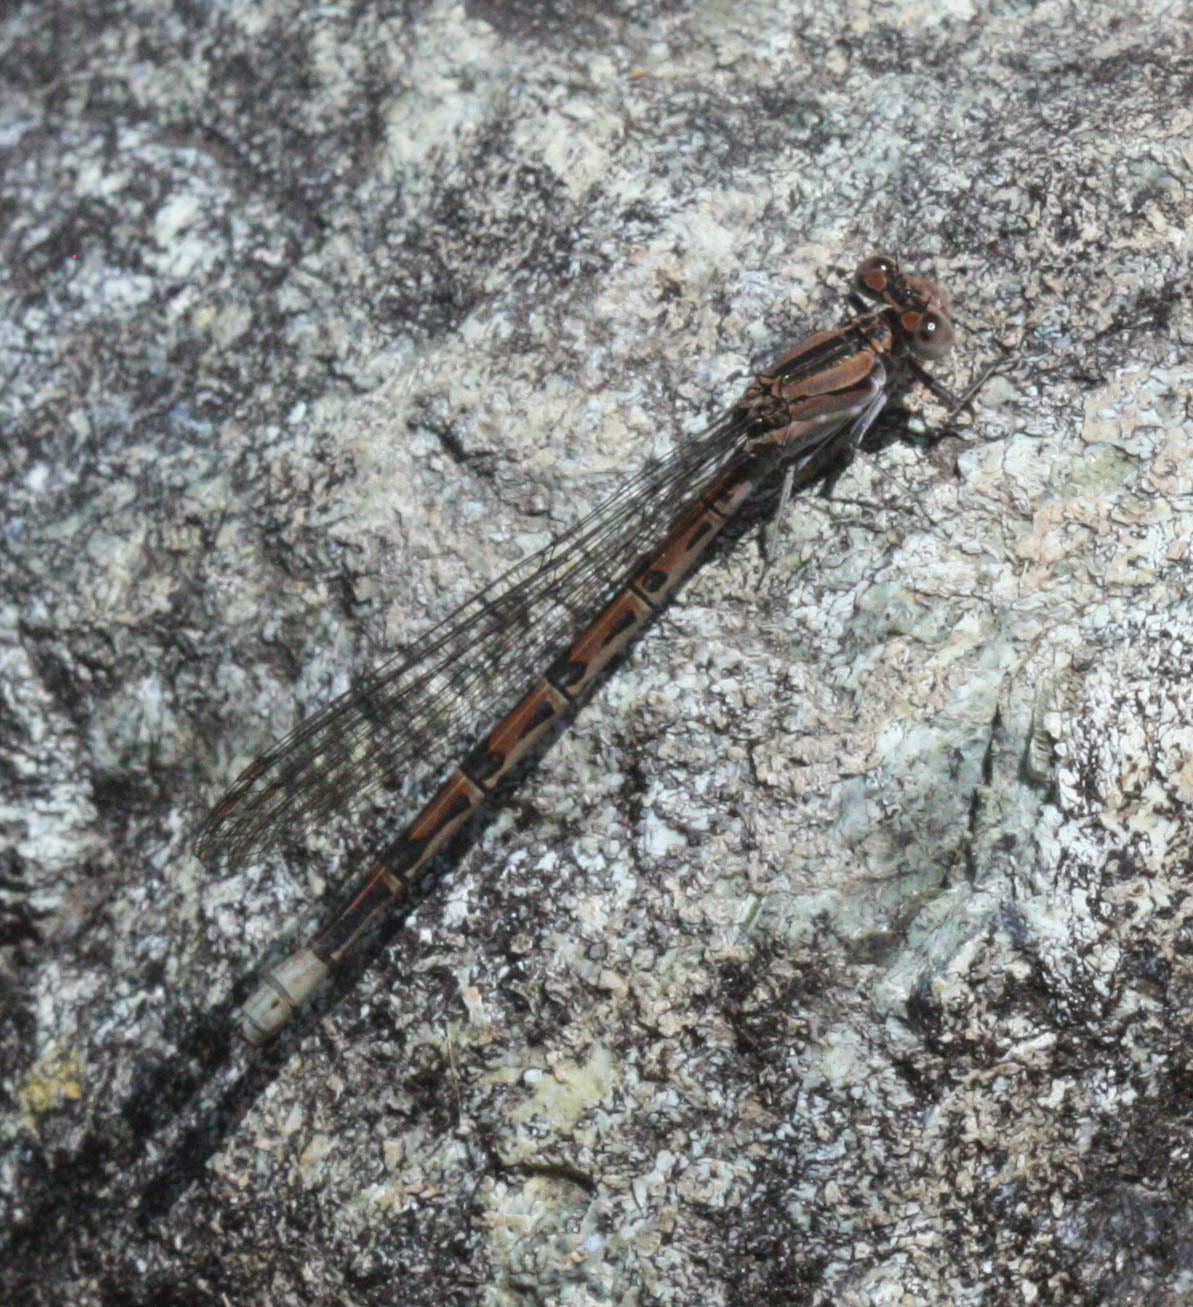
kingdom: Animalia
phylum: Arthropoda
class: Insecta
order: Odonata
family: Coenagrionidae
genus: Argia
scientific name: Argia vivida
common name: Vivid dancer
